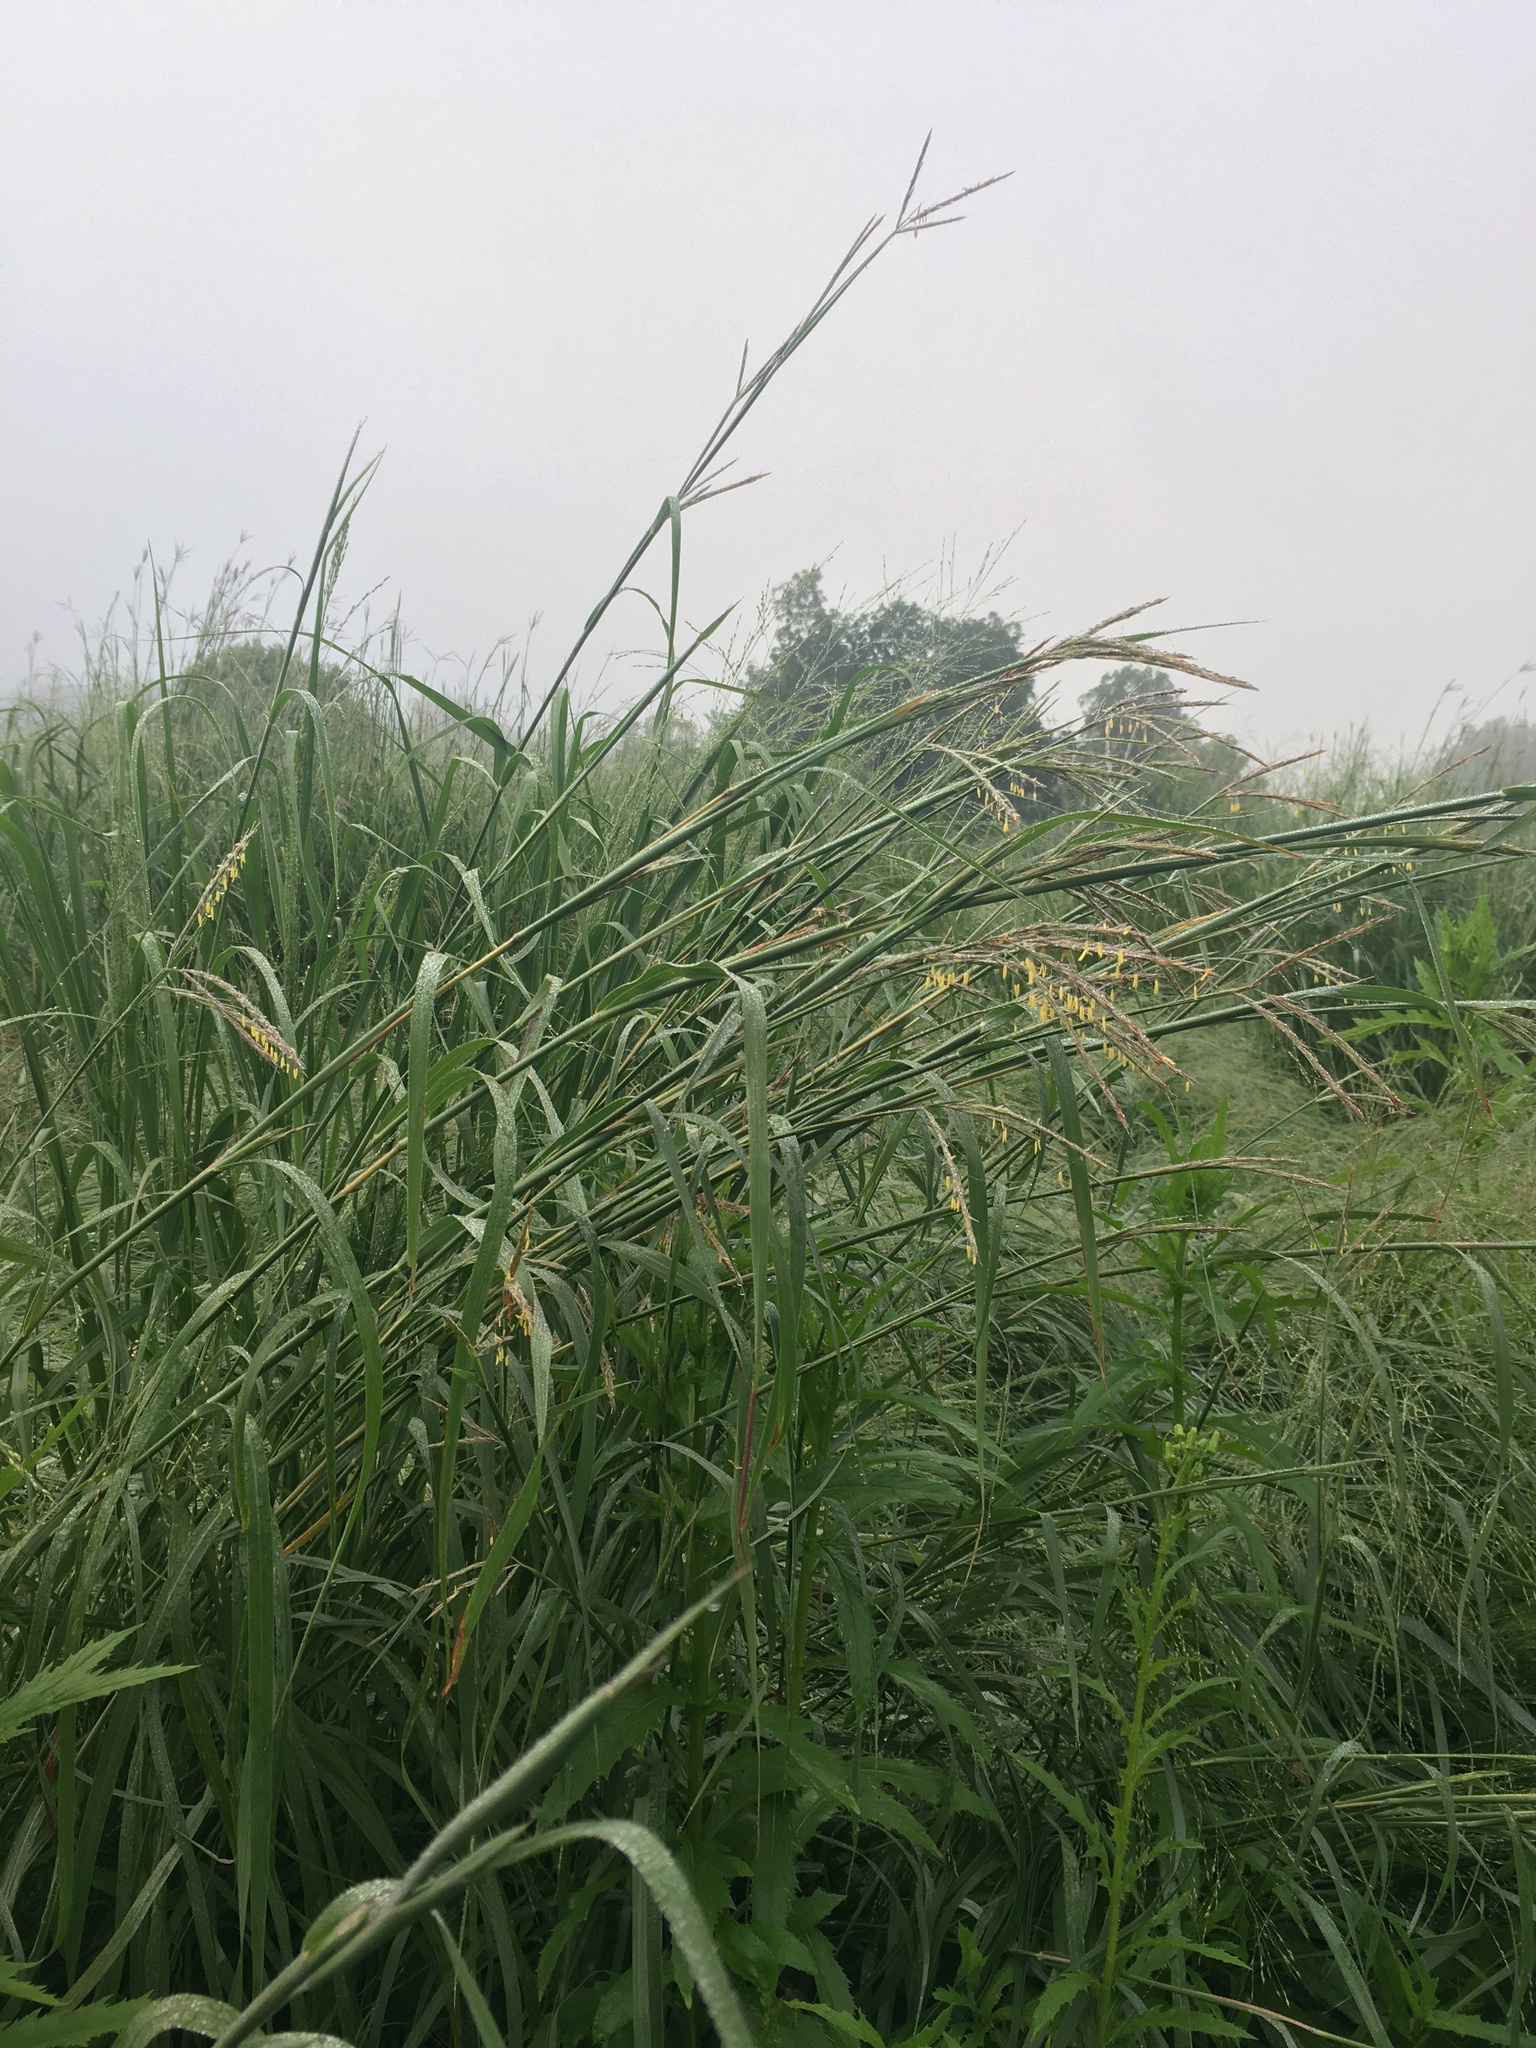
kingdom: Plantae
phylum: Tracheophyta
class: Liliopsida
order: Poales
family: Poaceae
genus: Andropogon
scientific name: Andropogon gerardi
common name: Big bluestem
